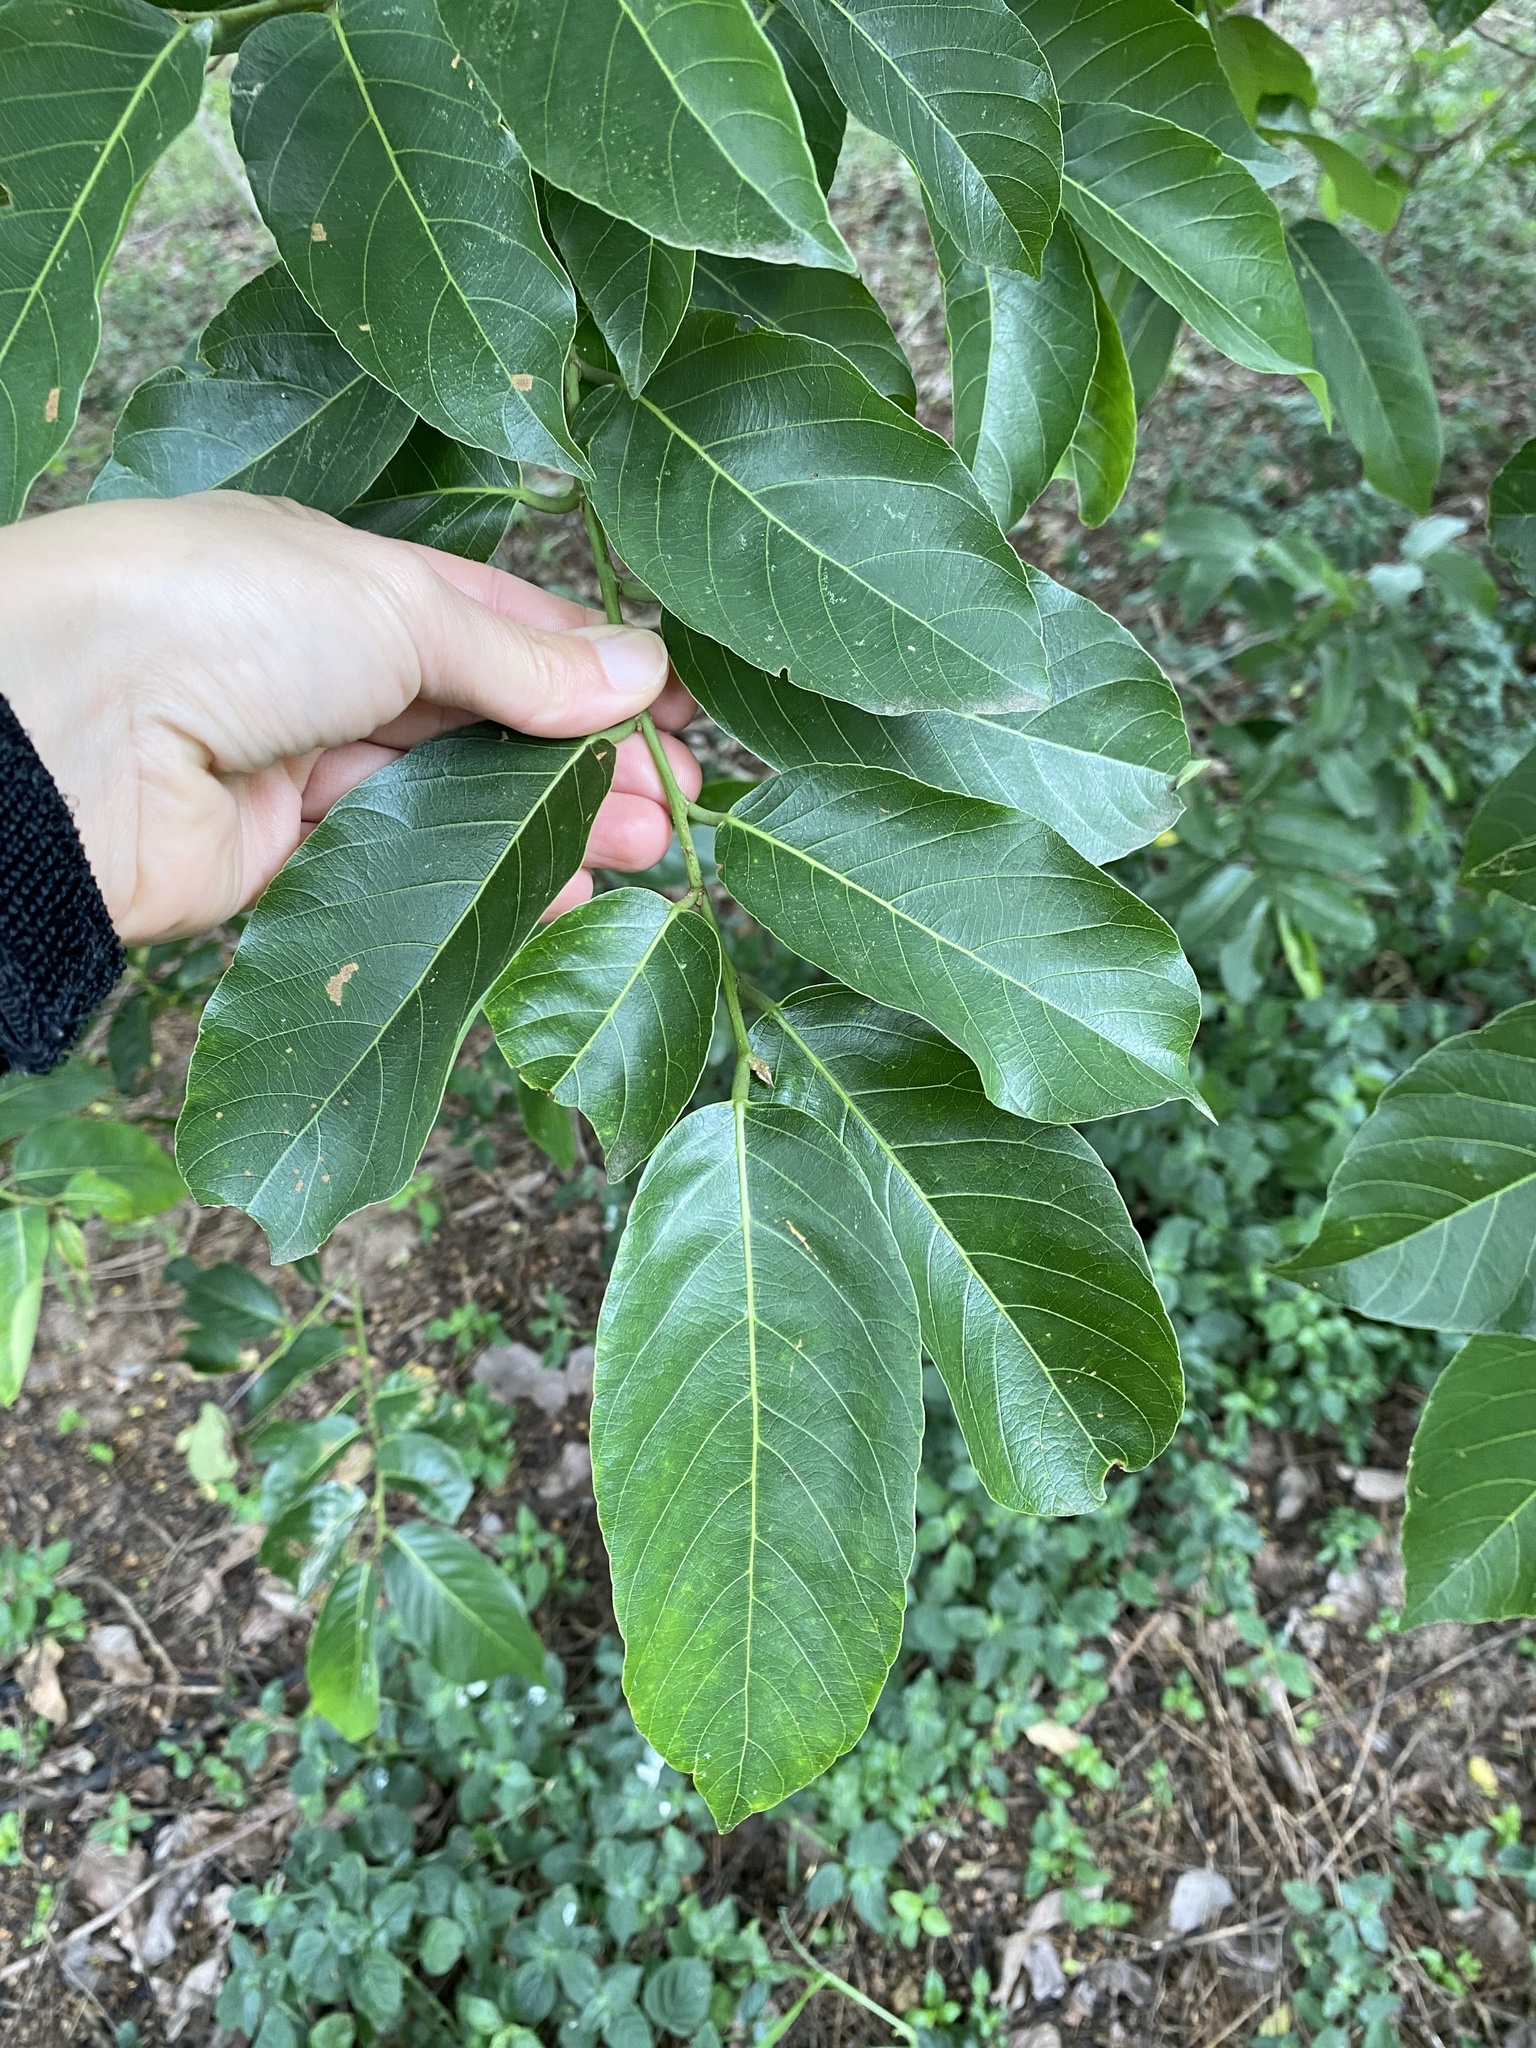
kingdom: Plantae
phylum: Tracheophyta
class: Magnoliopsida
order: Malpighiales
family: Phyllanthaceae
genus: Bridelia
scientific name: Bridelia micrantha
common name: Bridelia
